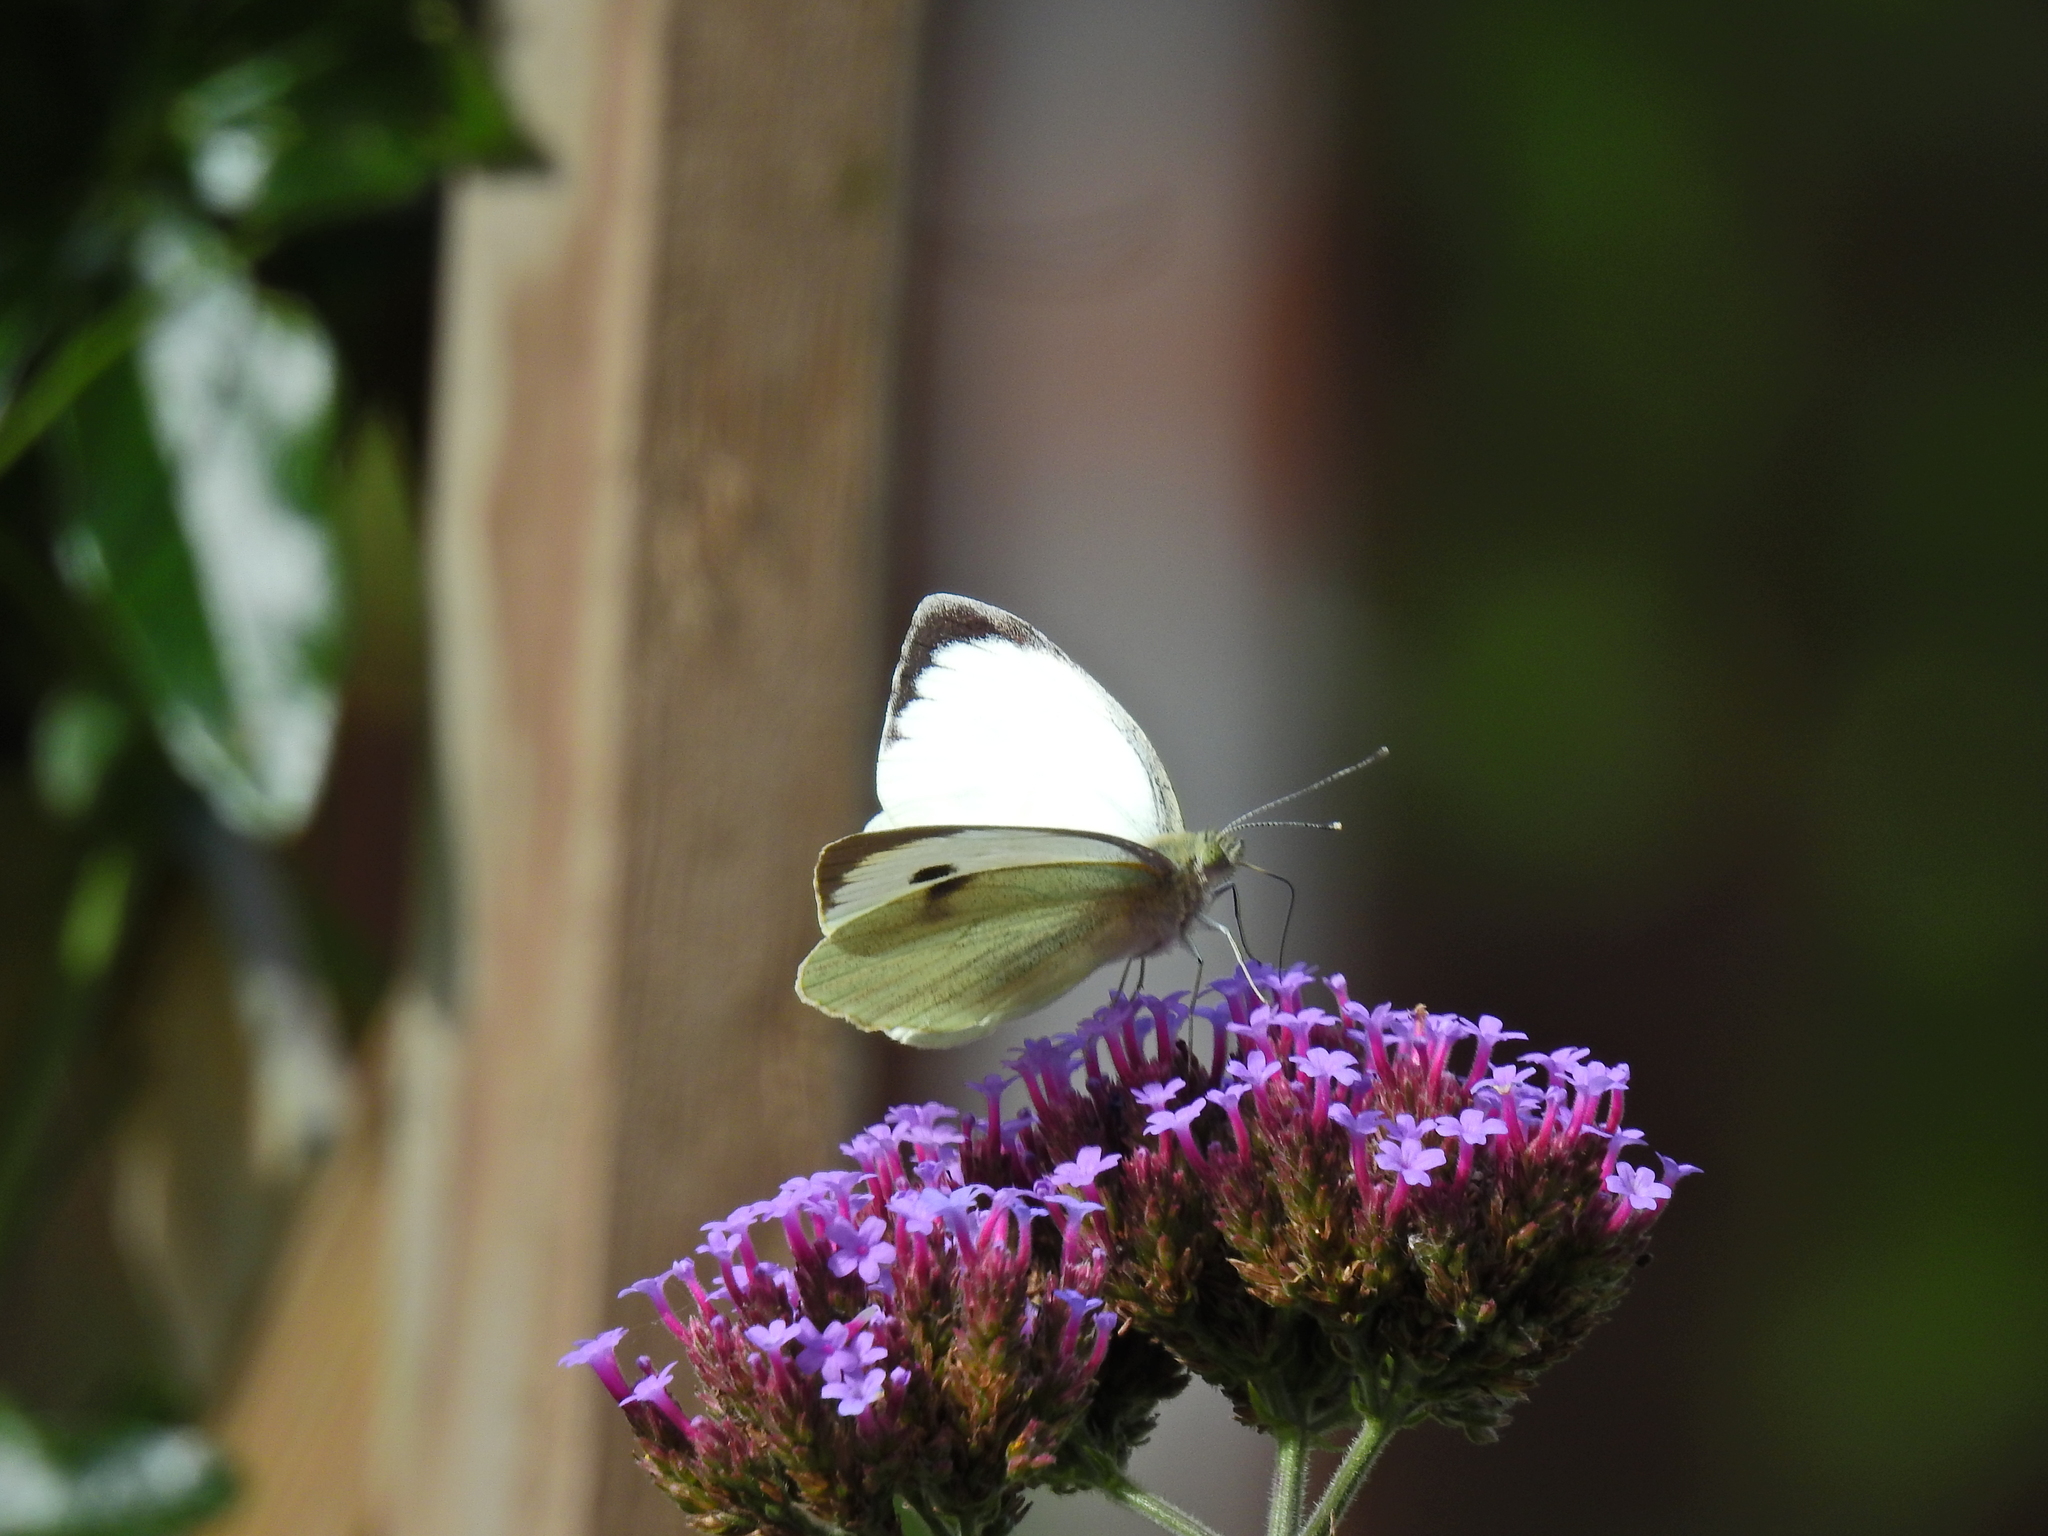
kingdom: Animalia
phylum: Arthropoda
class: Insecta
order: Lepidoptera
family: Pieridae
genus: Pieris
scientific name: Pieris brassicae
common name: Large white
